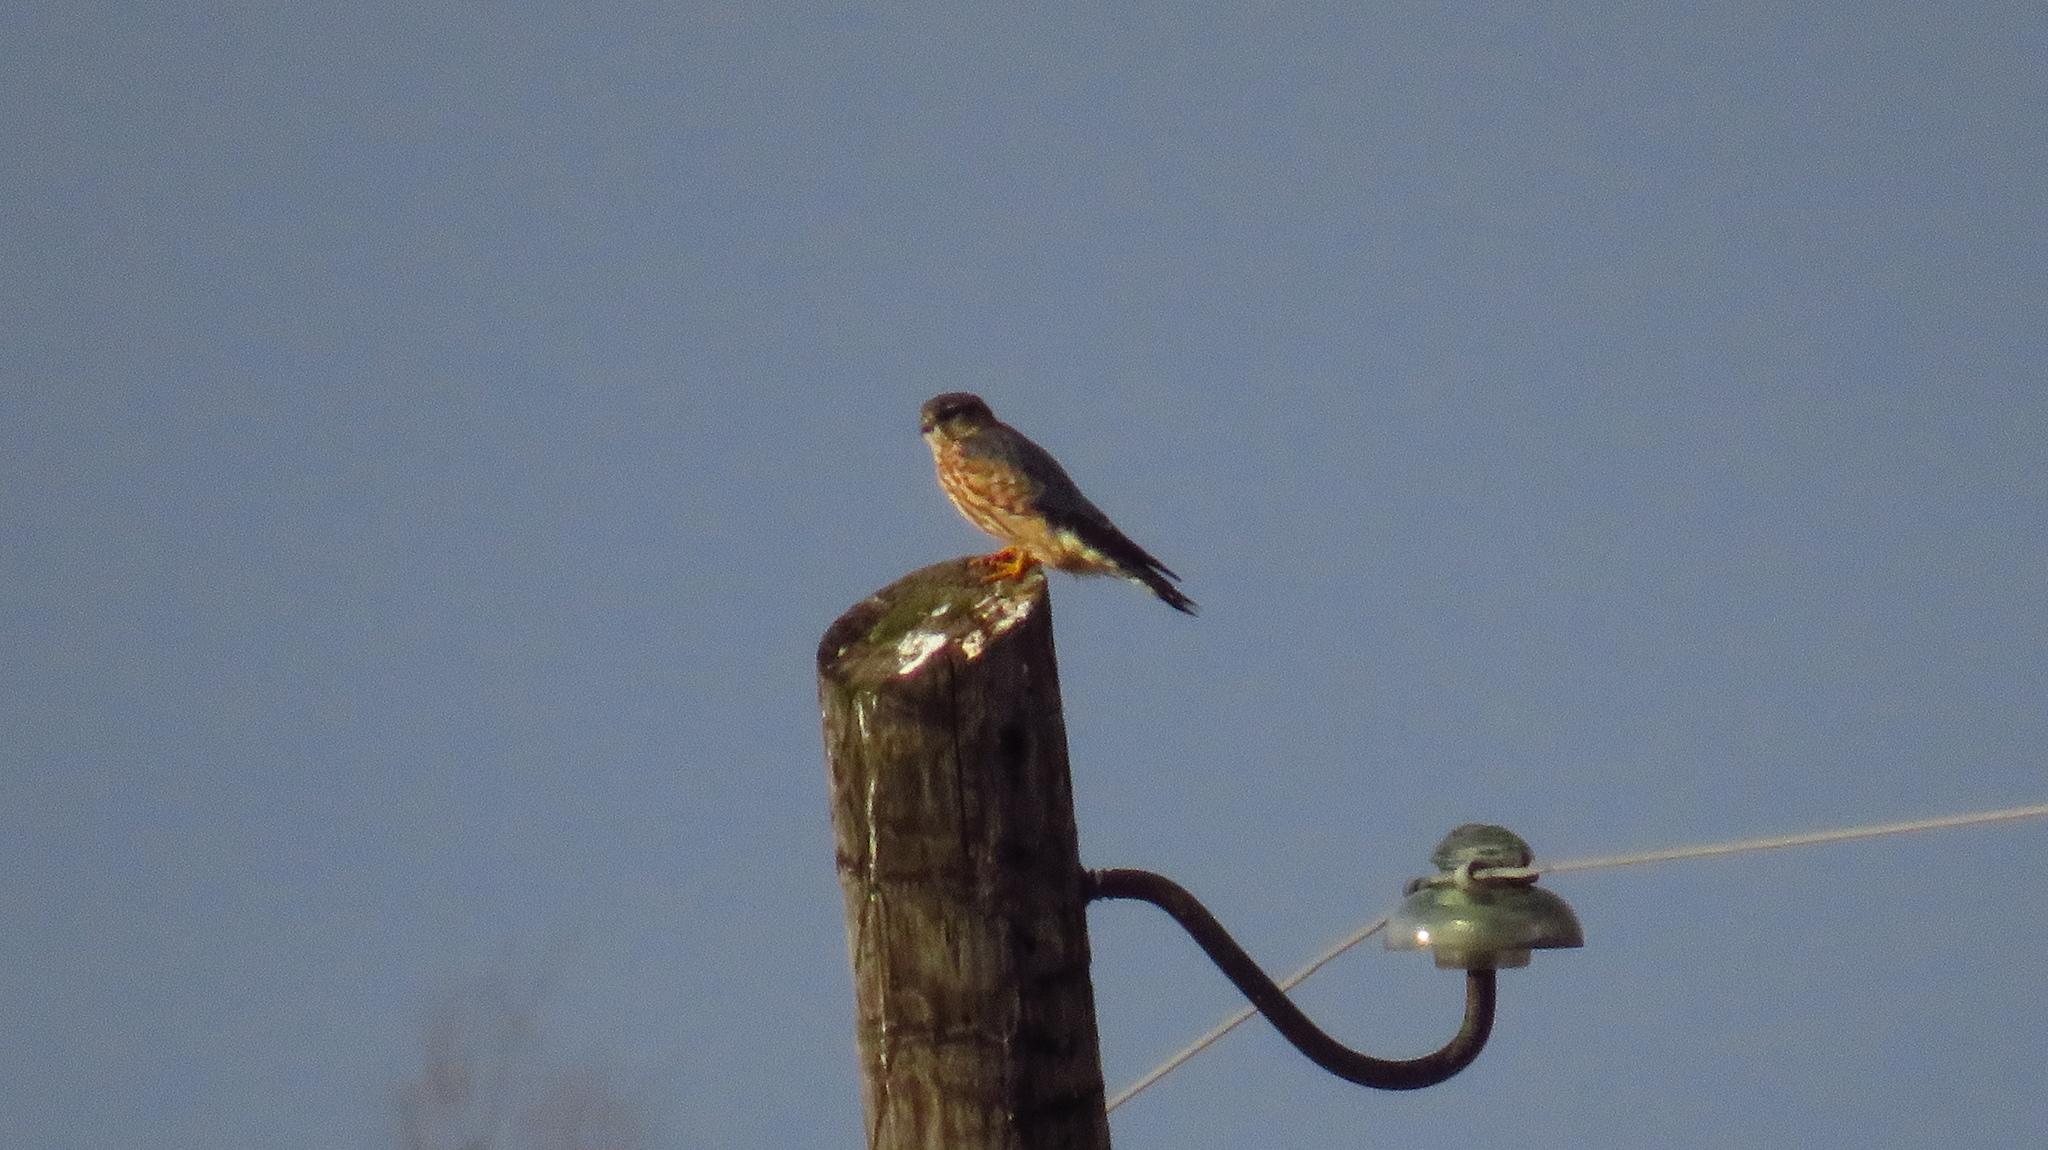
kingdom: Animalia
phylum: Chordata
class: Aves
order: Falconiformes
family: Falconidae
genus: Falco
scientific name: Falco columbarius
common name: Merlin
